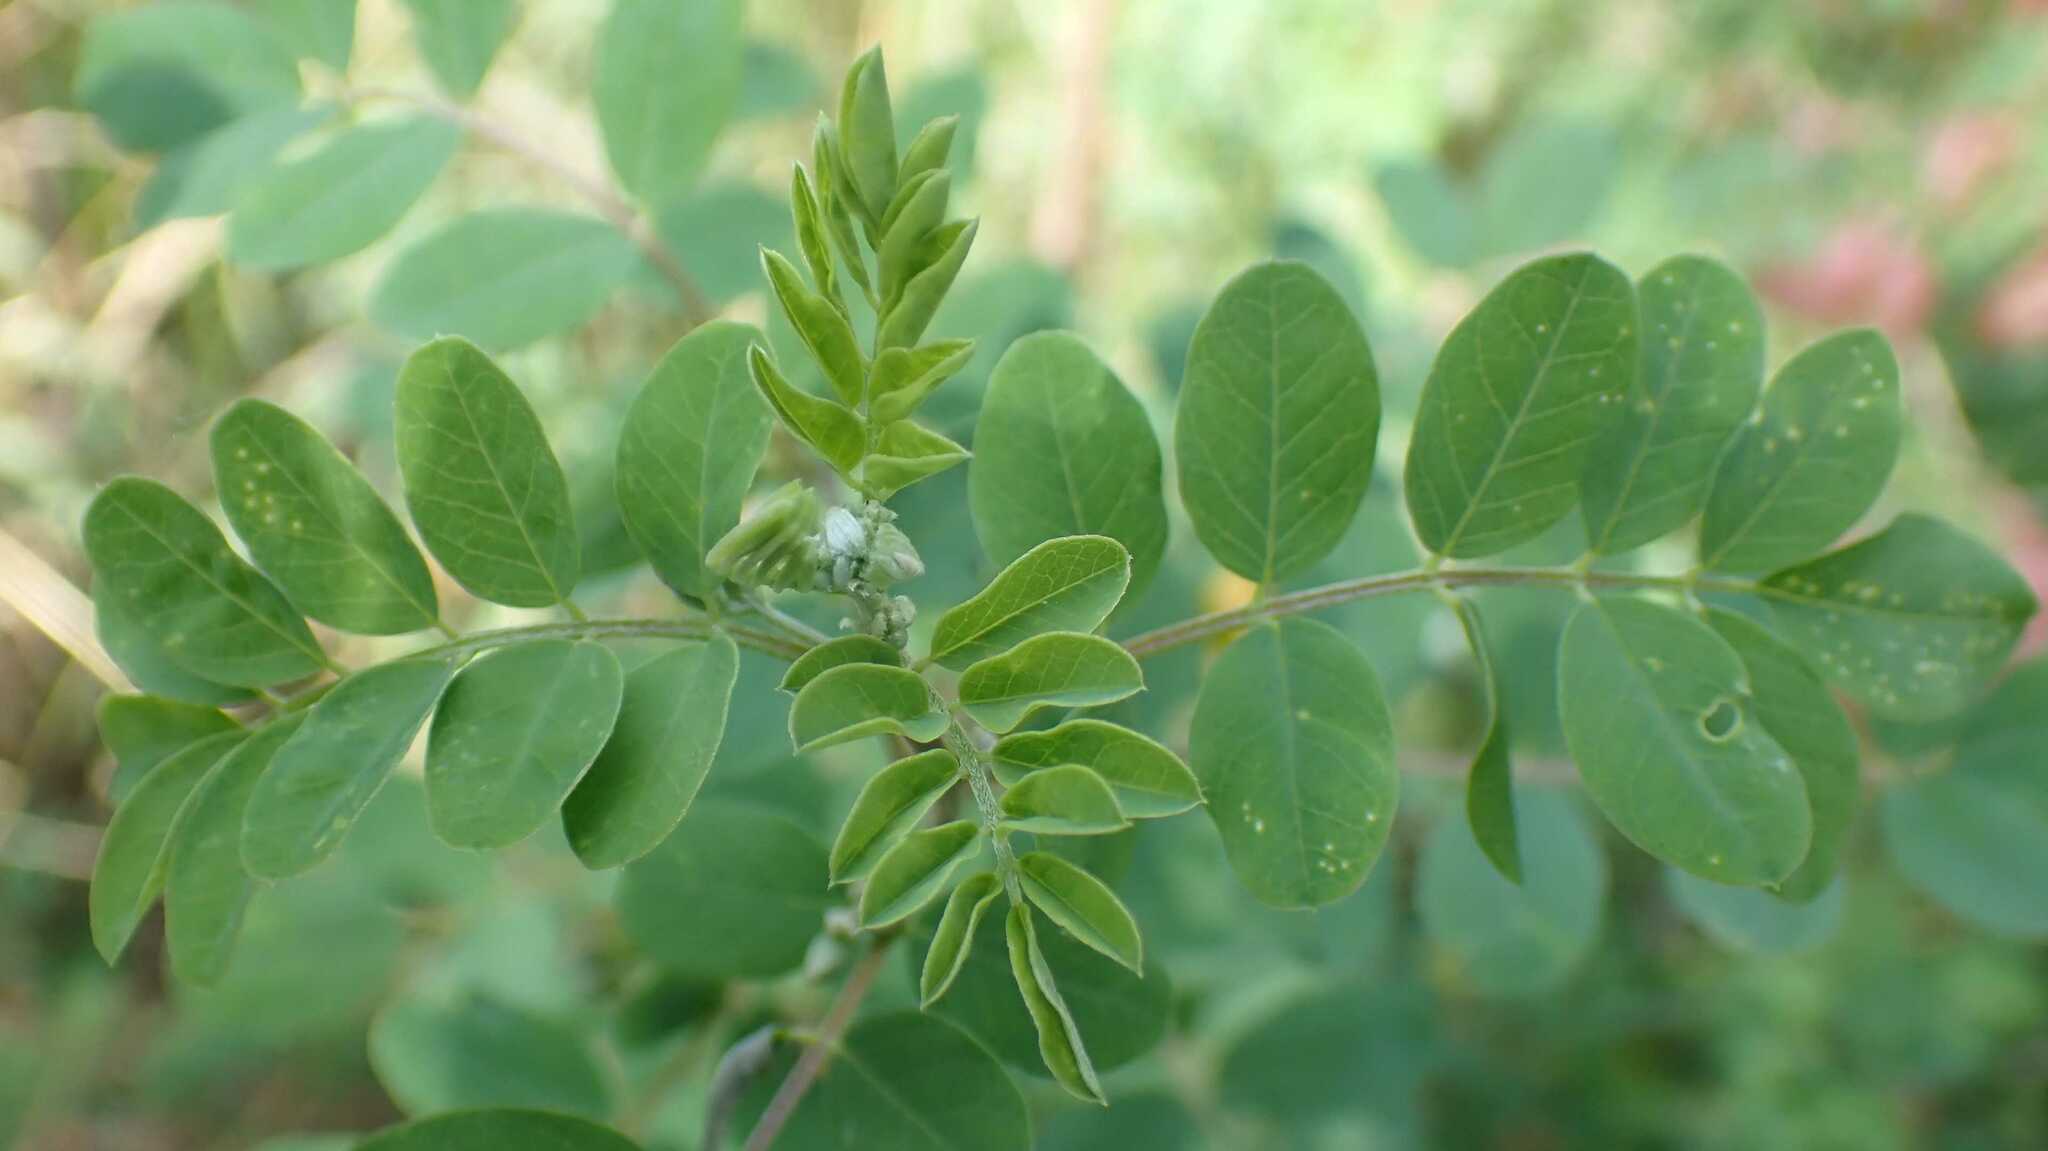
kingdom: Plantae
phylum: Tracheophyta
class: Magnoliopsida
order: Fabales
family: Fabaceae
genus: Colutea
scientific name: Colutea arborescens
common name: Bladder-senna
